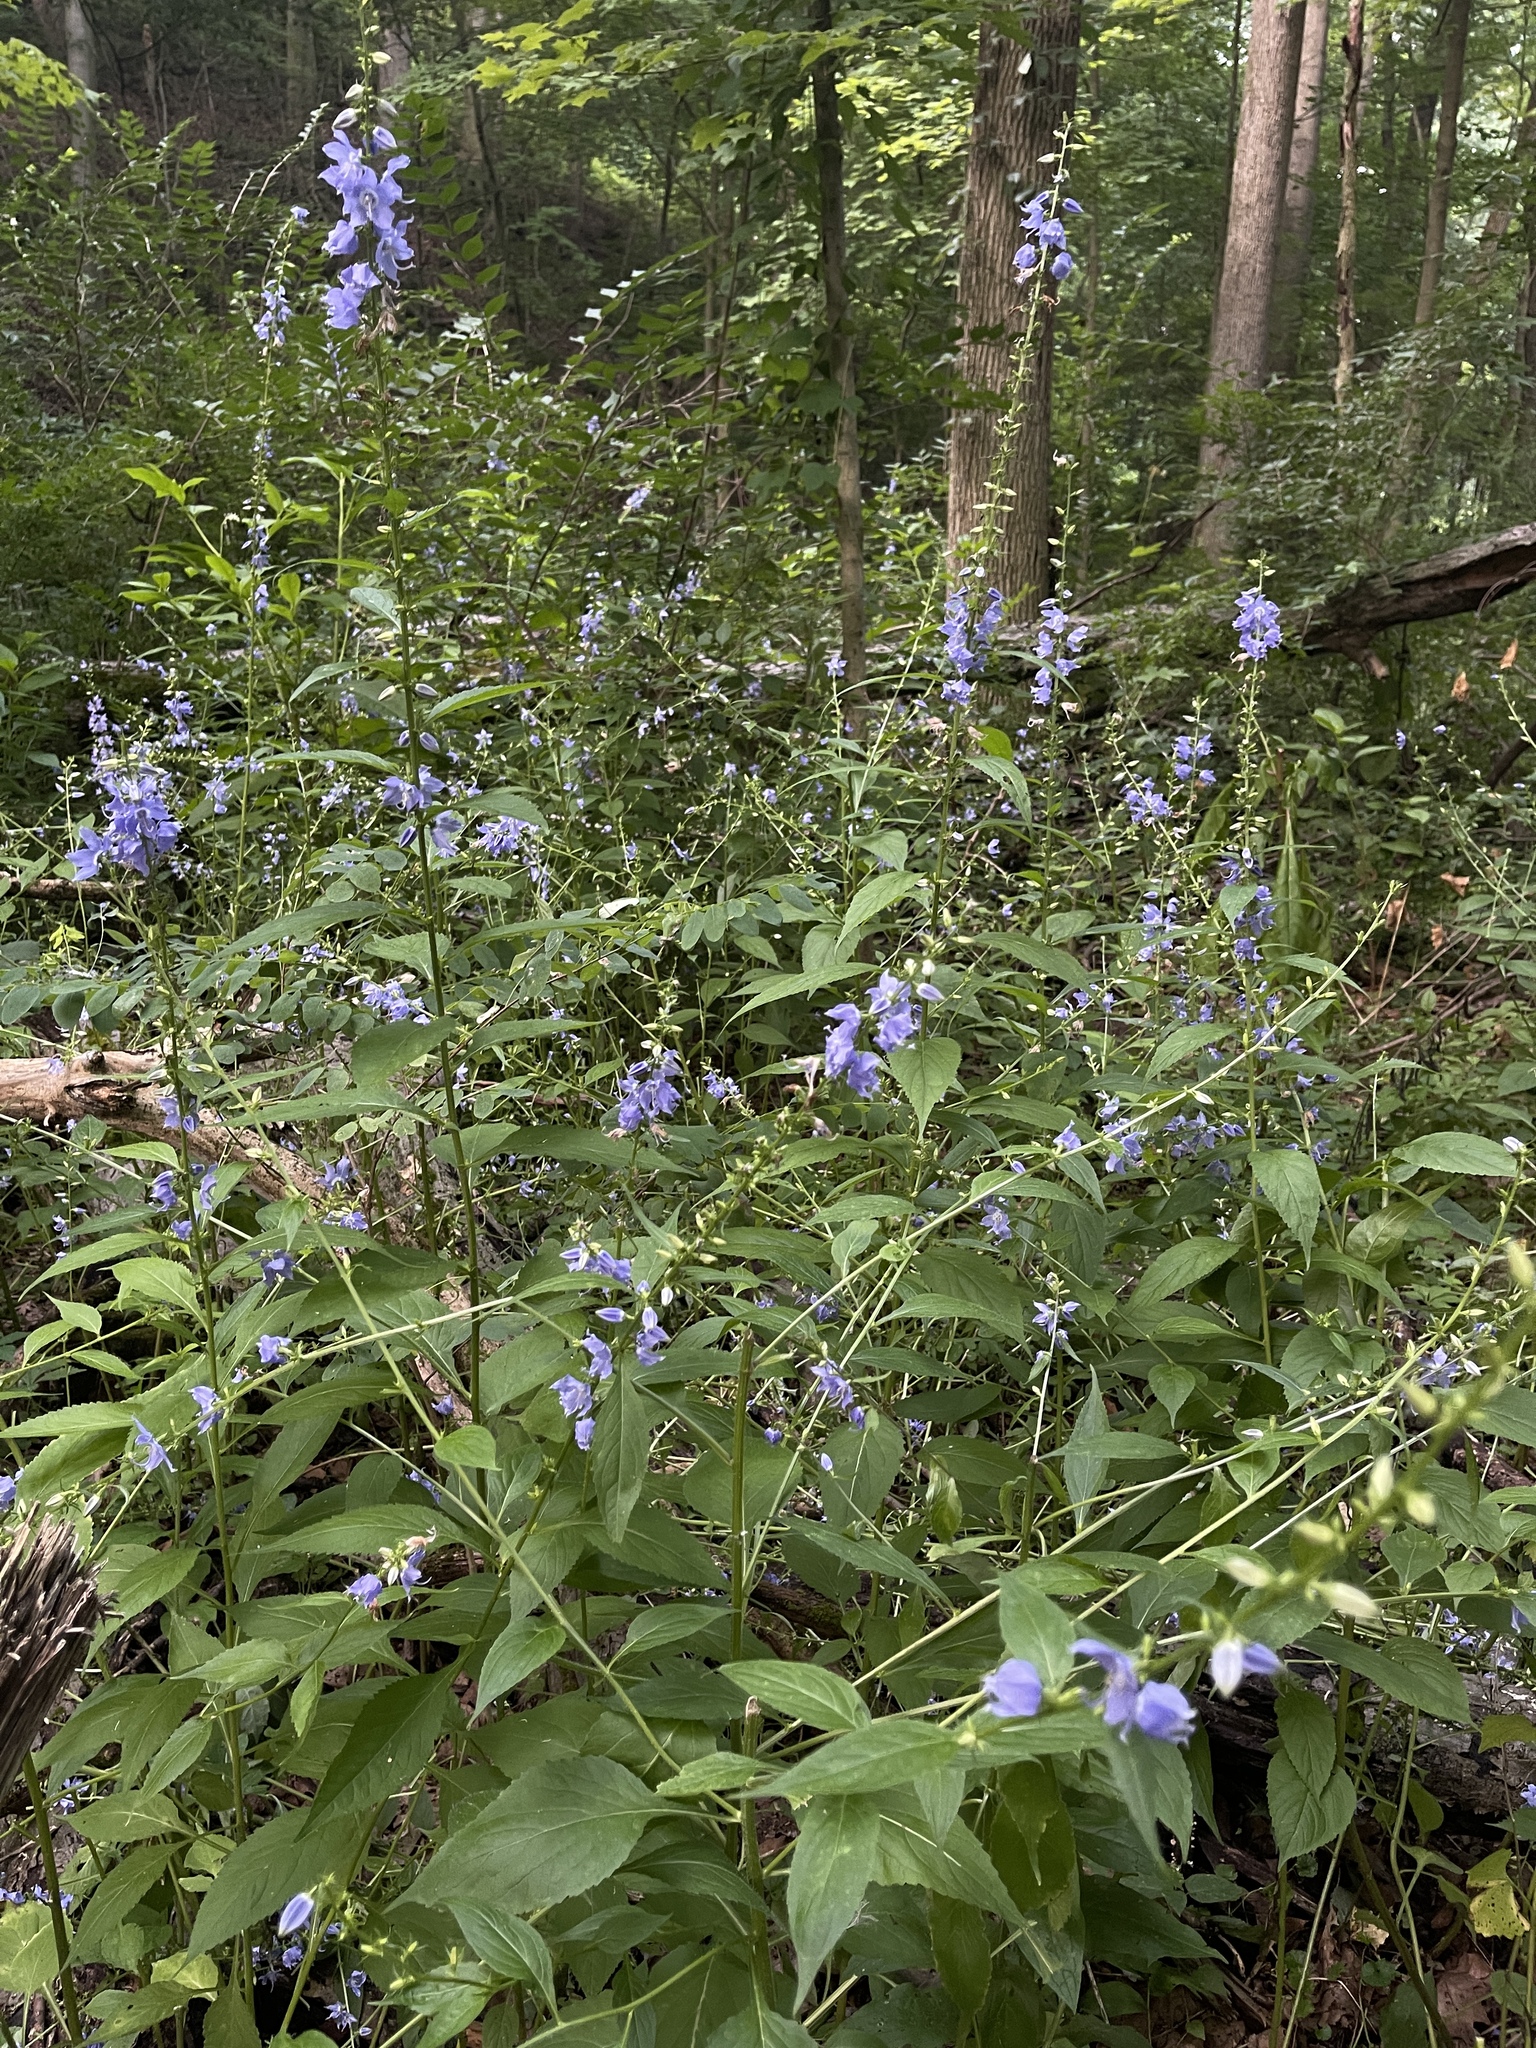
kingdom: Plantae
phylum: Tracheophyta
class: Magnoliopsida
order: Asterales
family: Campanulaceae
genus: Campanulastrum
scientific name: Campanulastrum americanum
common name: American bellflower
